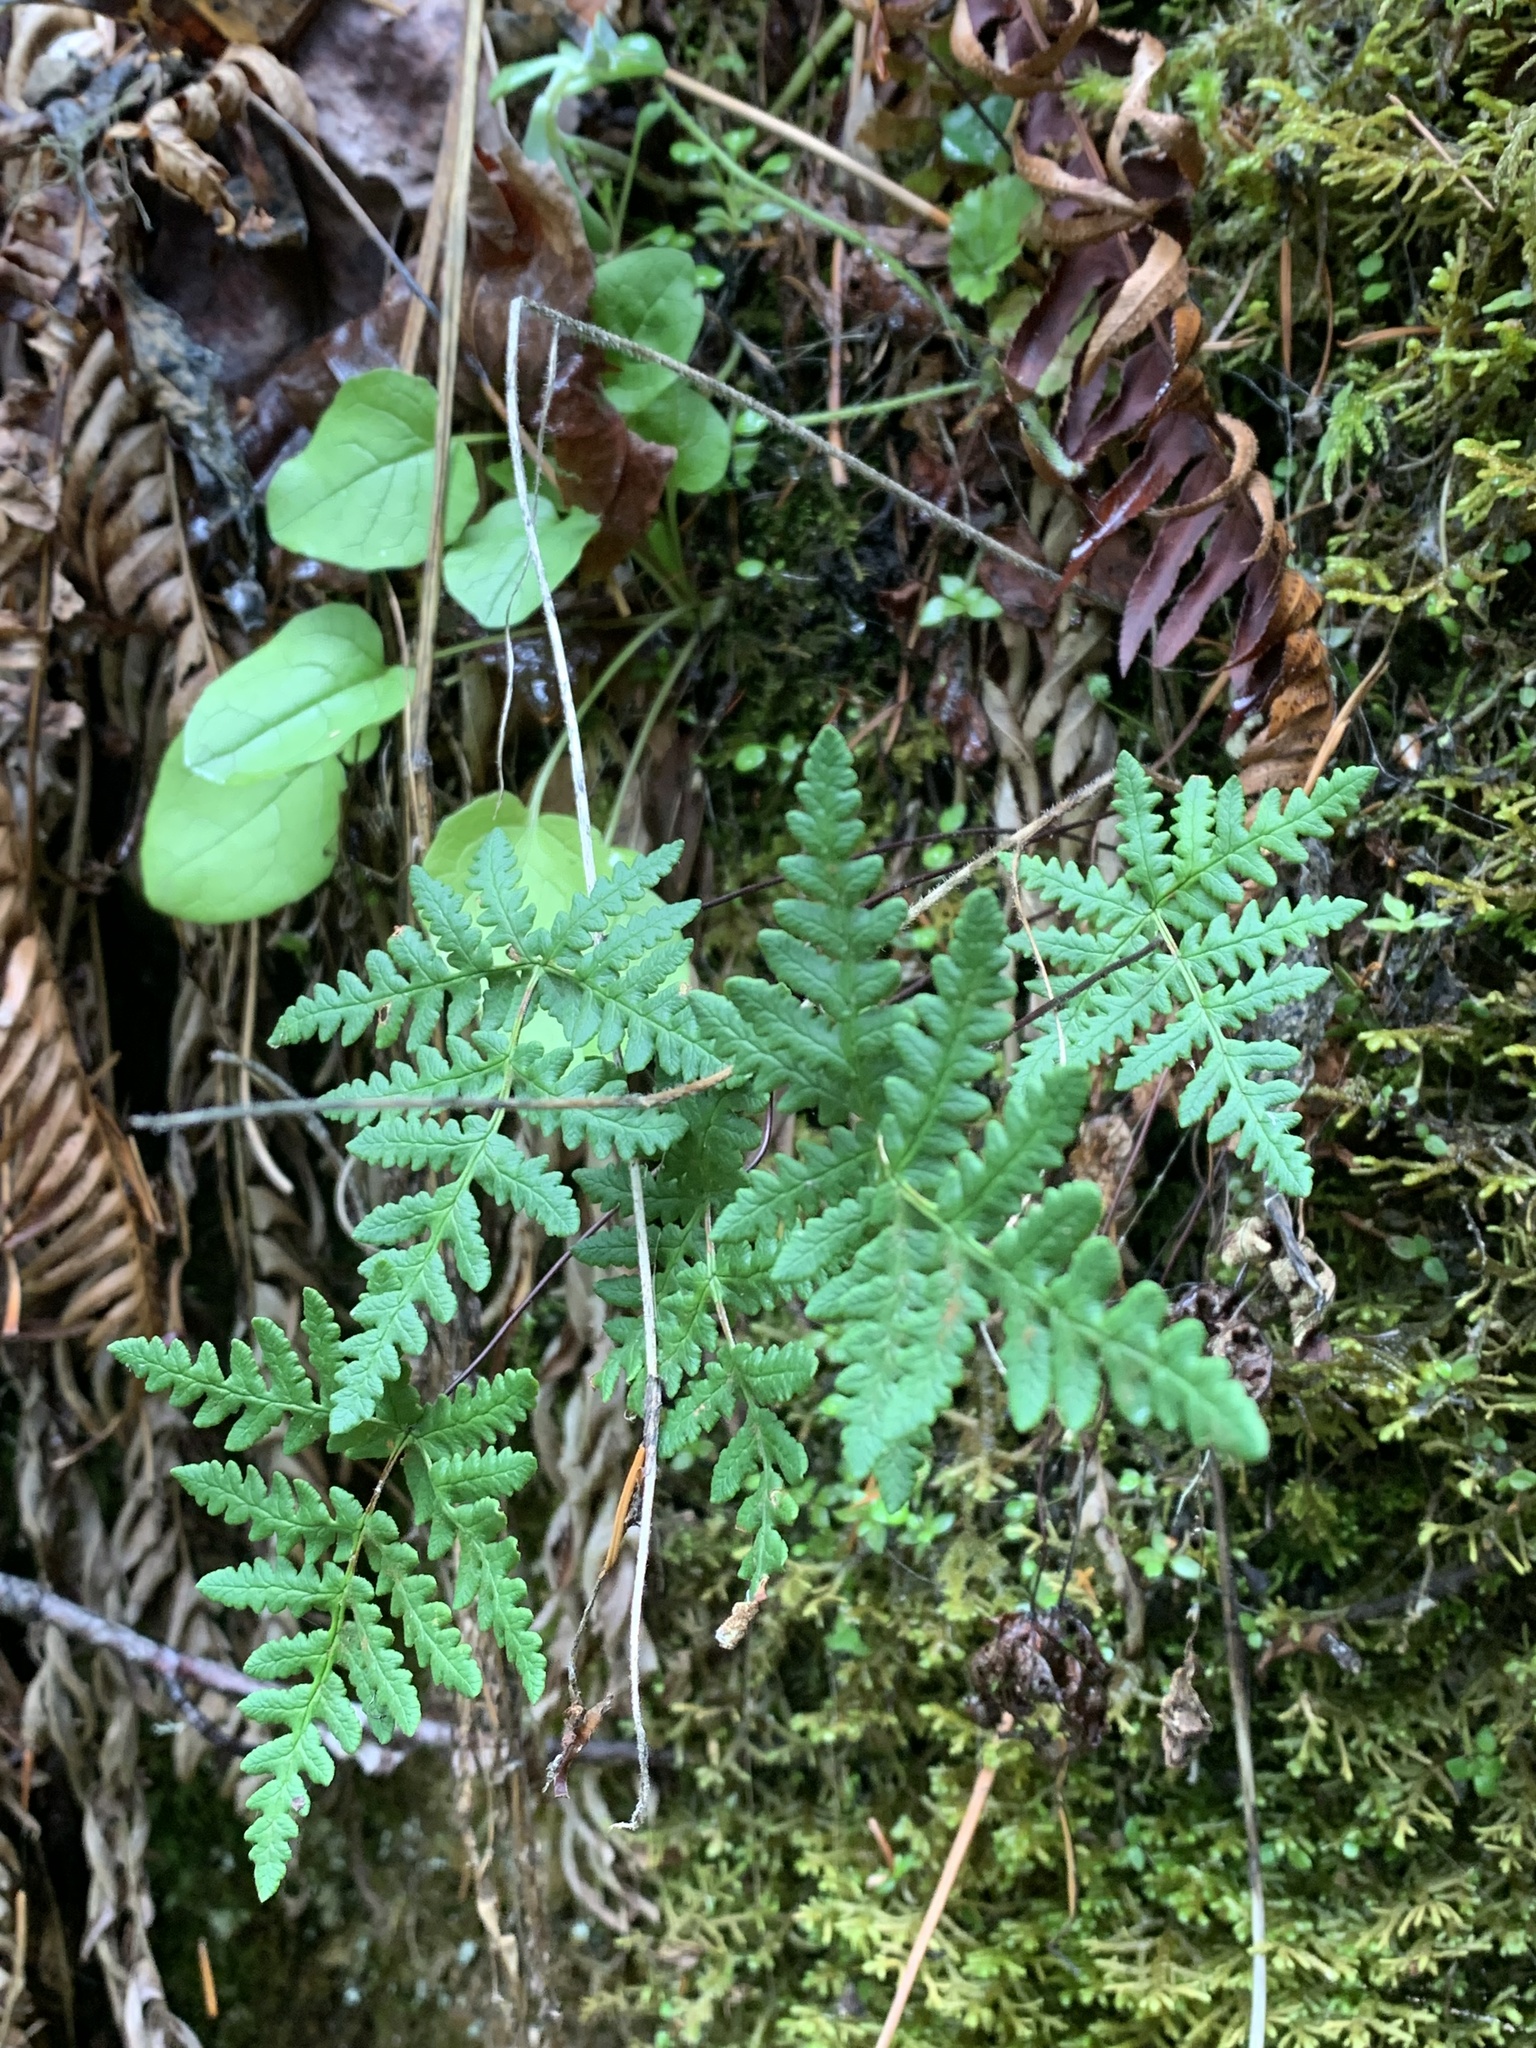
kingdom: Plantae
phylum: Tracheophyta
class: Polypodiopsida
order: Polypodiales
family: Pteridaceae
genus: Pentagramma
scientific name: Pentagramma triangularis
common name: Gold fern
